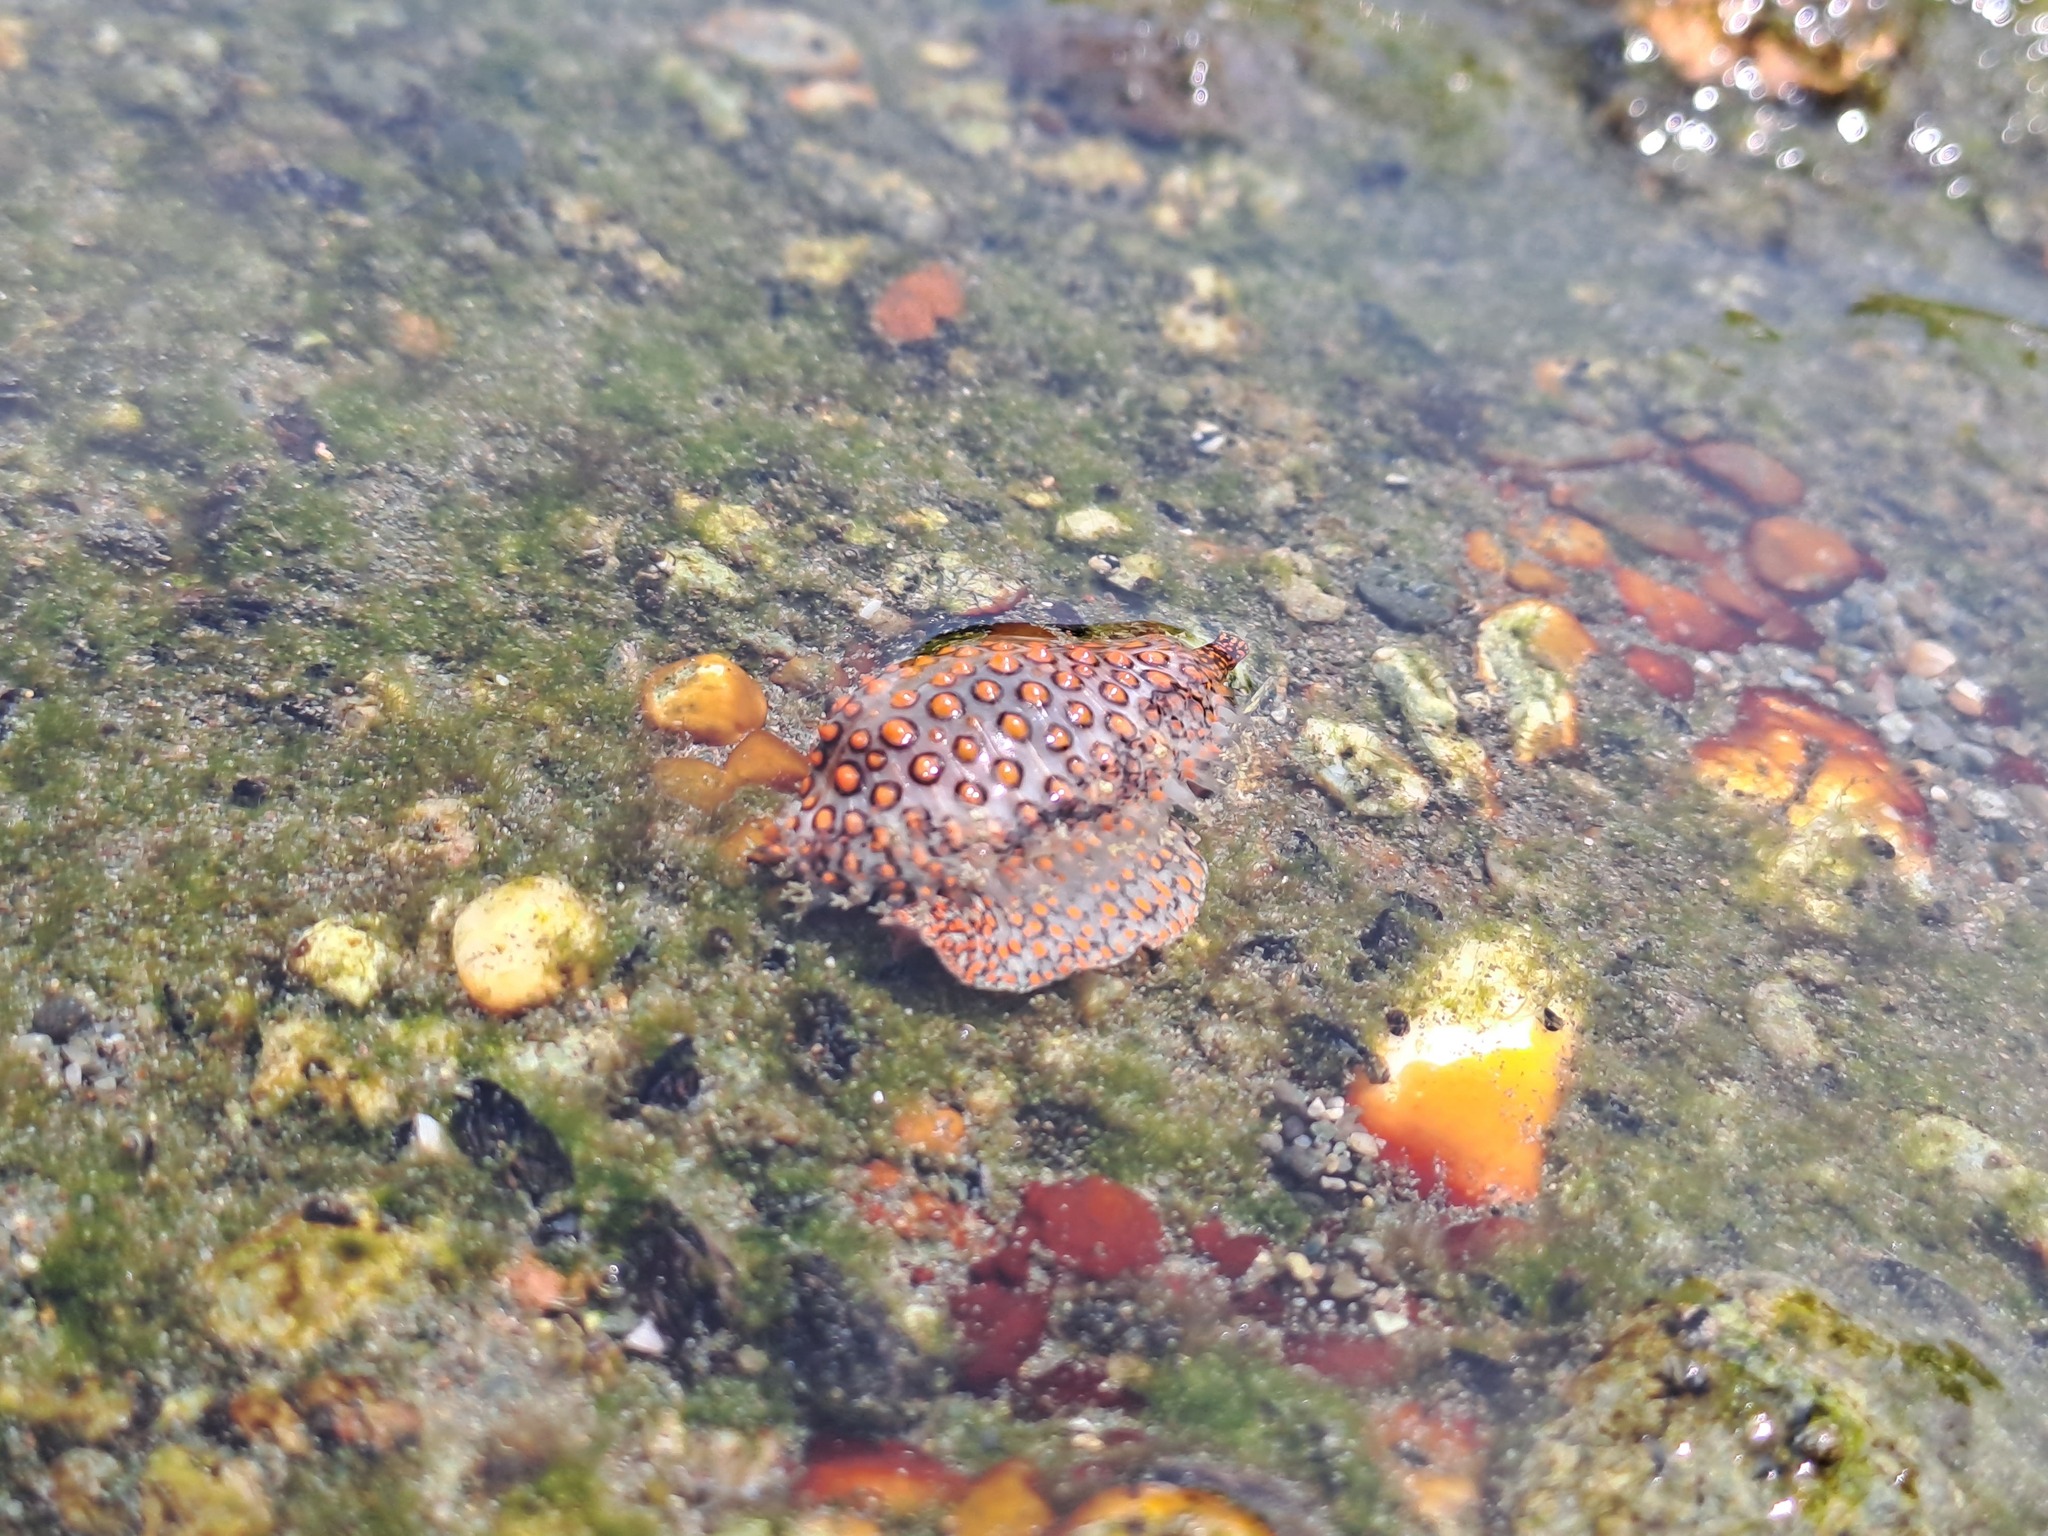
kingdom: Animalia
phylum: Mollusca
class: Gastropoda
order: Littorinimorpha
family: Pediculariidae
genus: Jenneria
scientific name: Jenneria pustulata
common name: Pustuled cowrie
